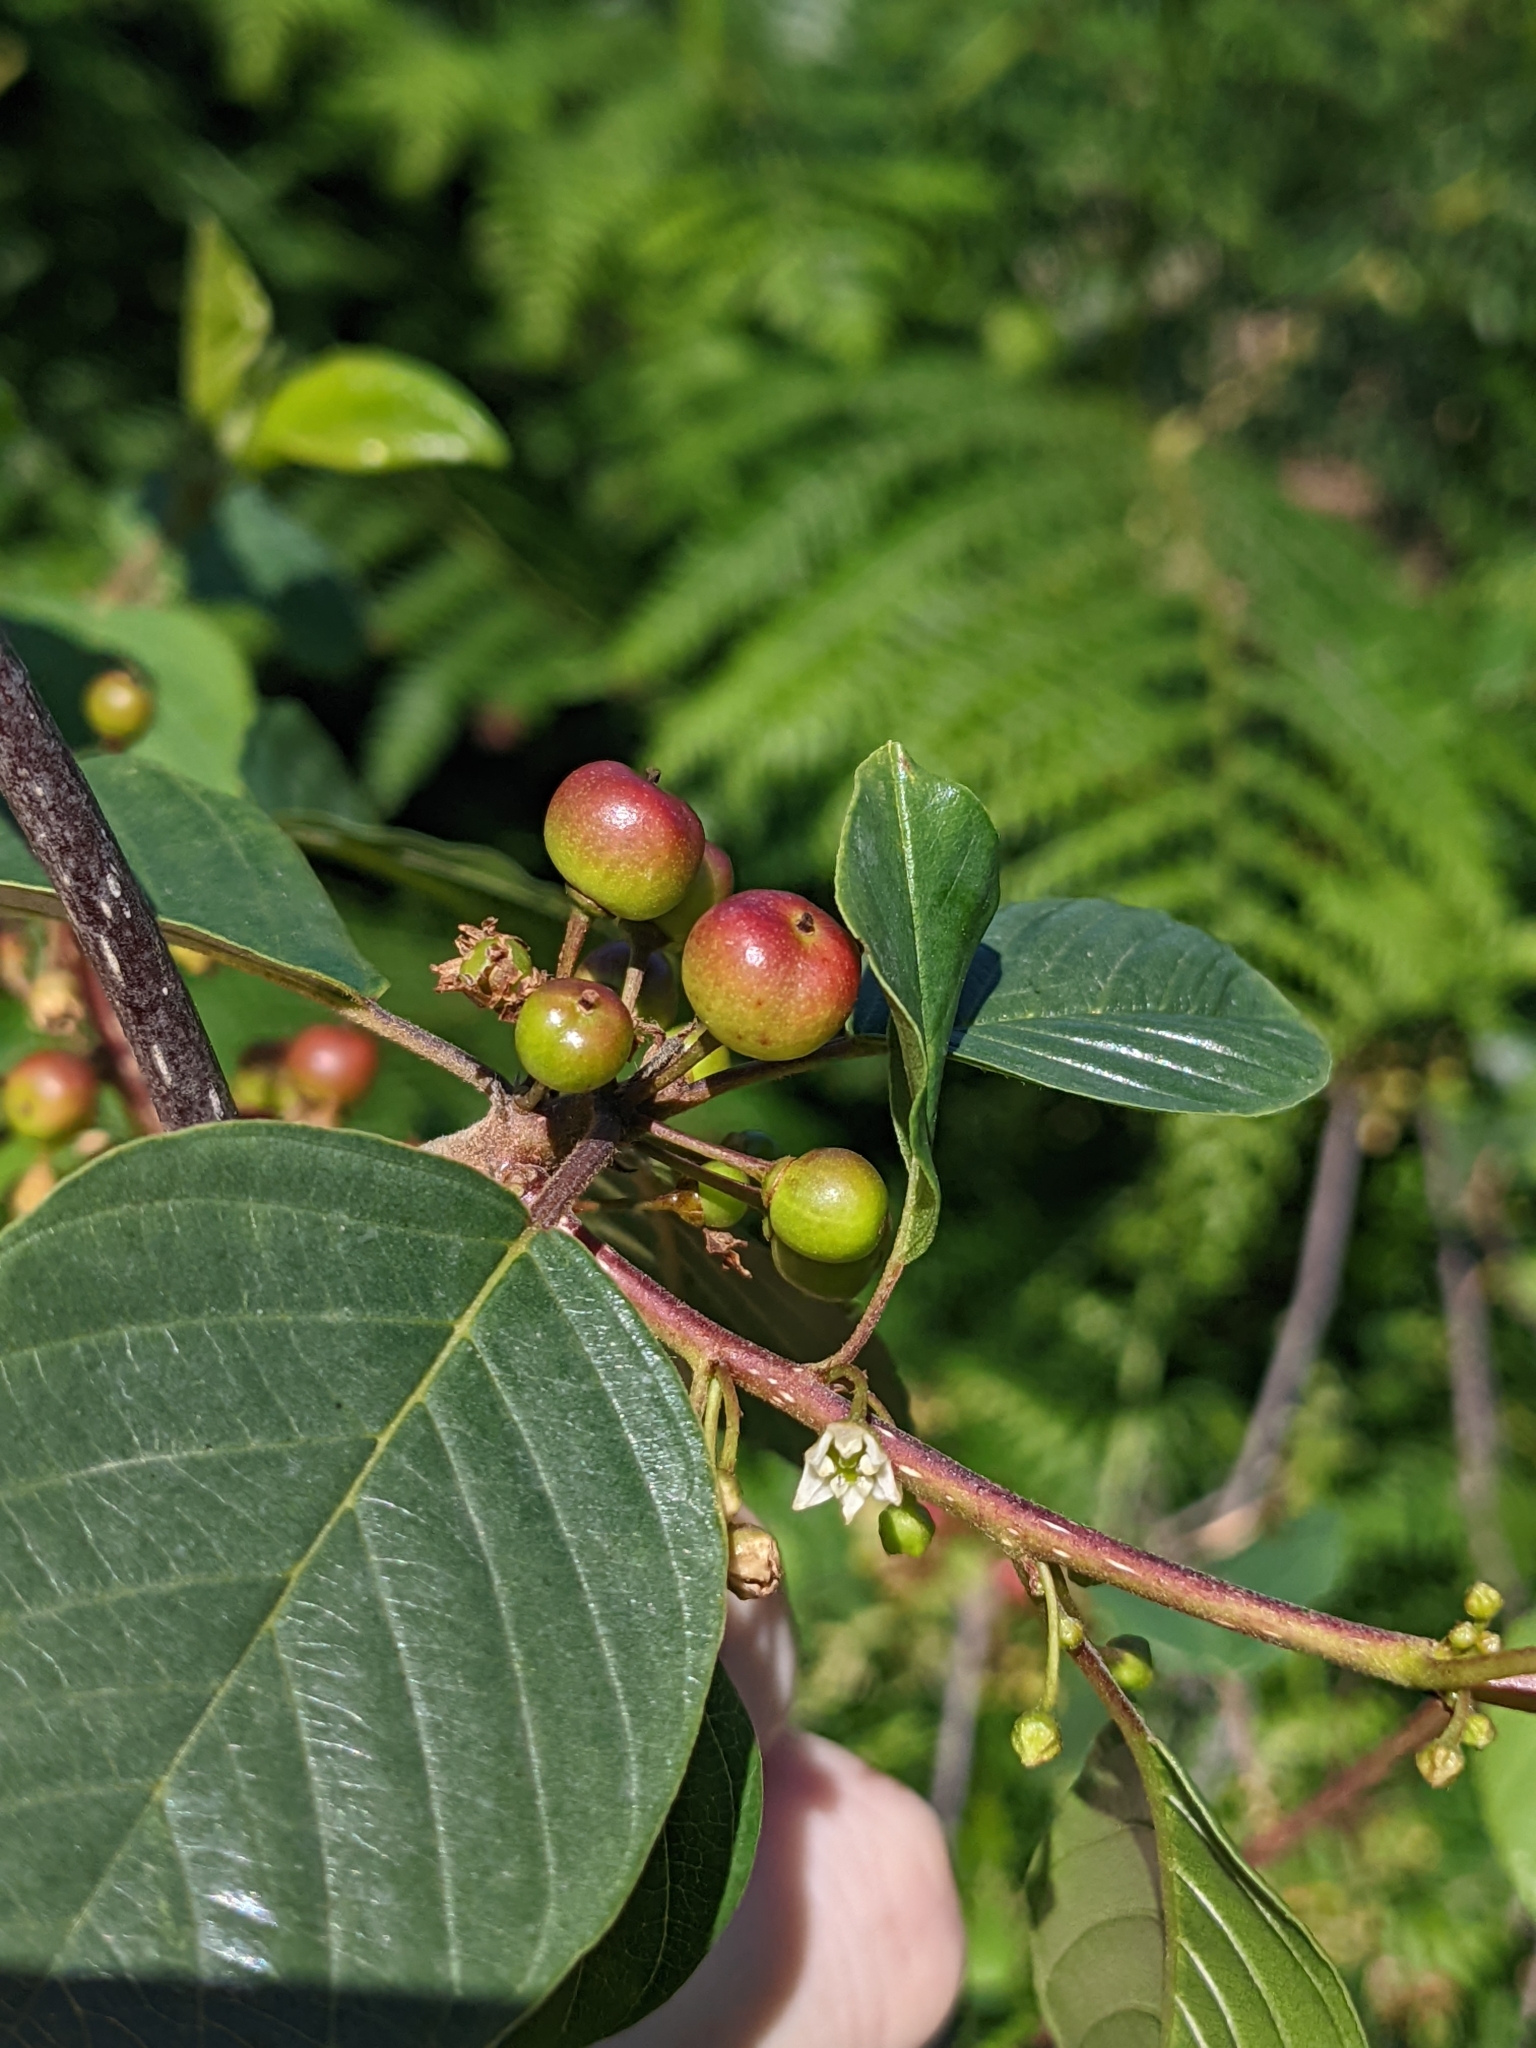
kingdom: Plantae
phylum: Tracheophyta
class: Magnoliopsida
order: Rosales
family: Rhamnaceae
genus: Frangula
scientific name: Frangula alnus
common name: Alder buckthorn
